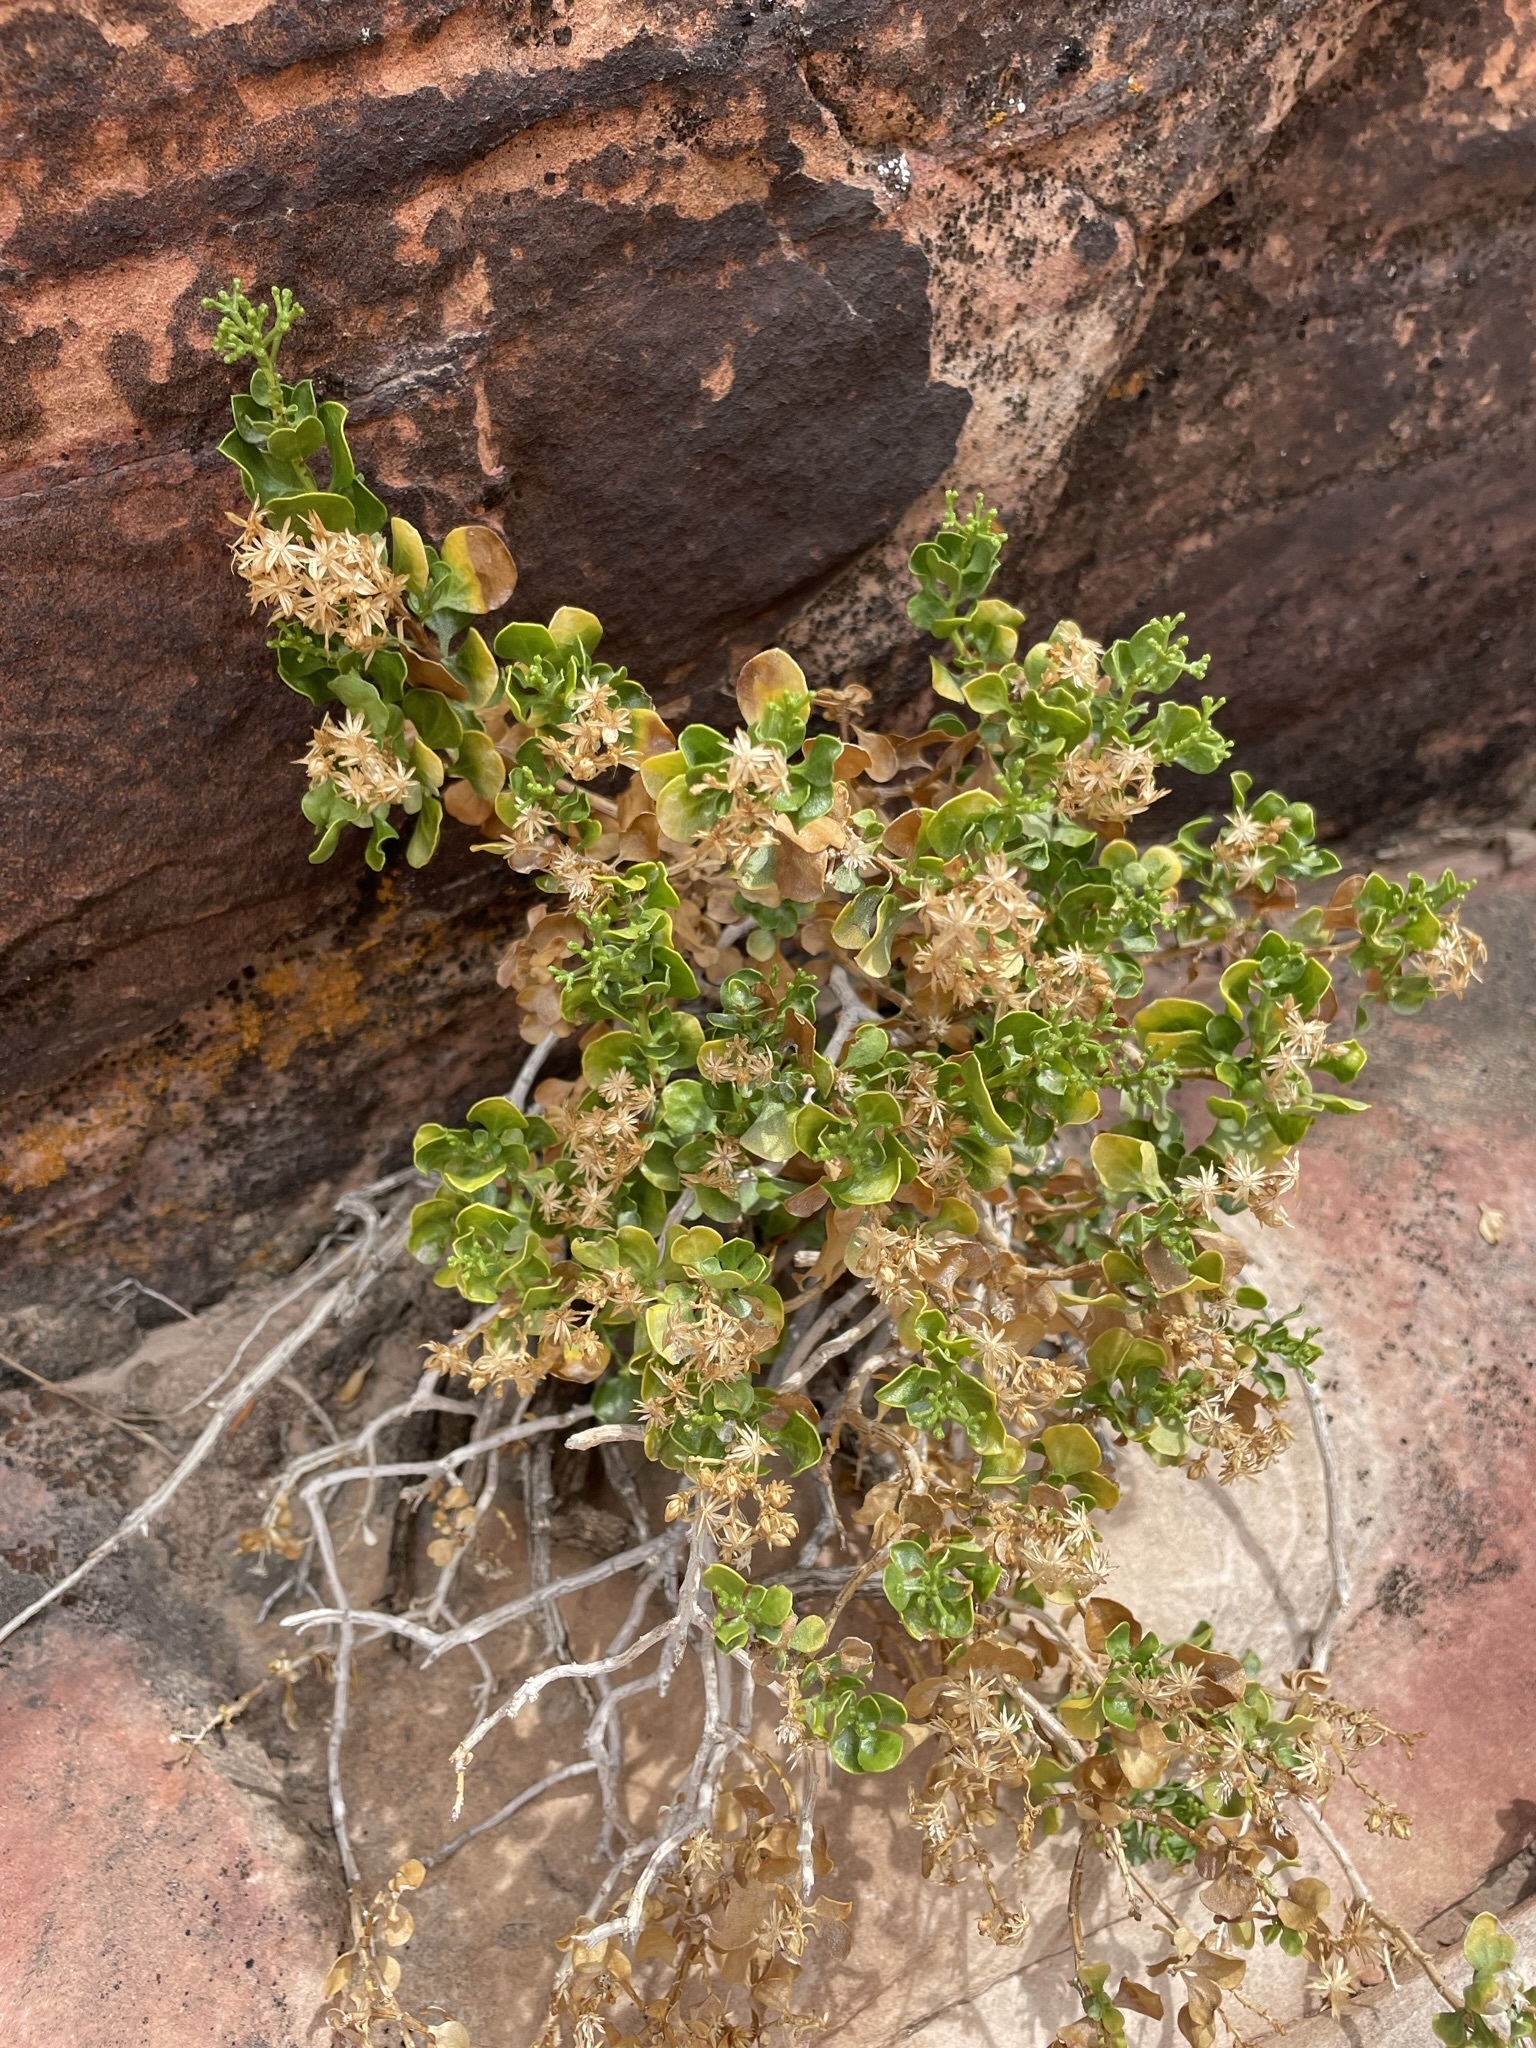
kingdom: Plantae
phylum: Tracheophyta
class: Magnoliopsida
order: Asterales
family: Asteraceae
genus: Ericameria
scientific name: Ericameria cuneata
